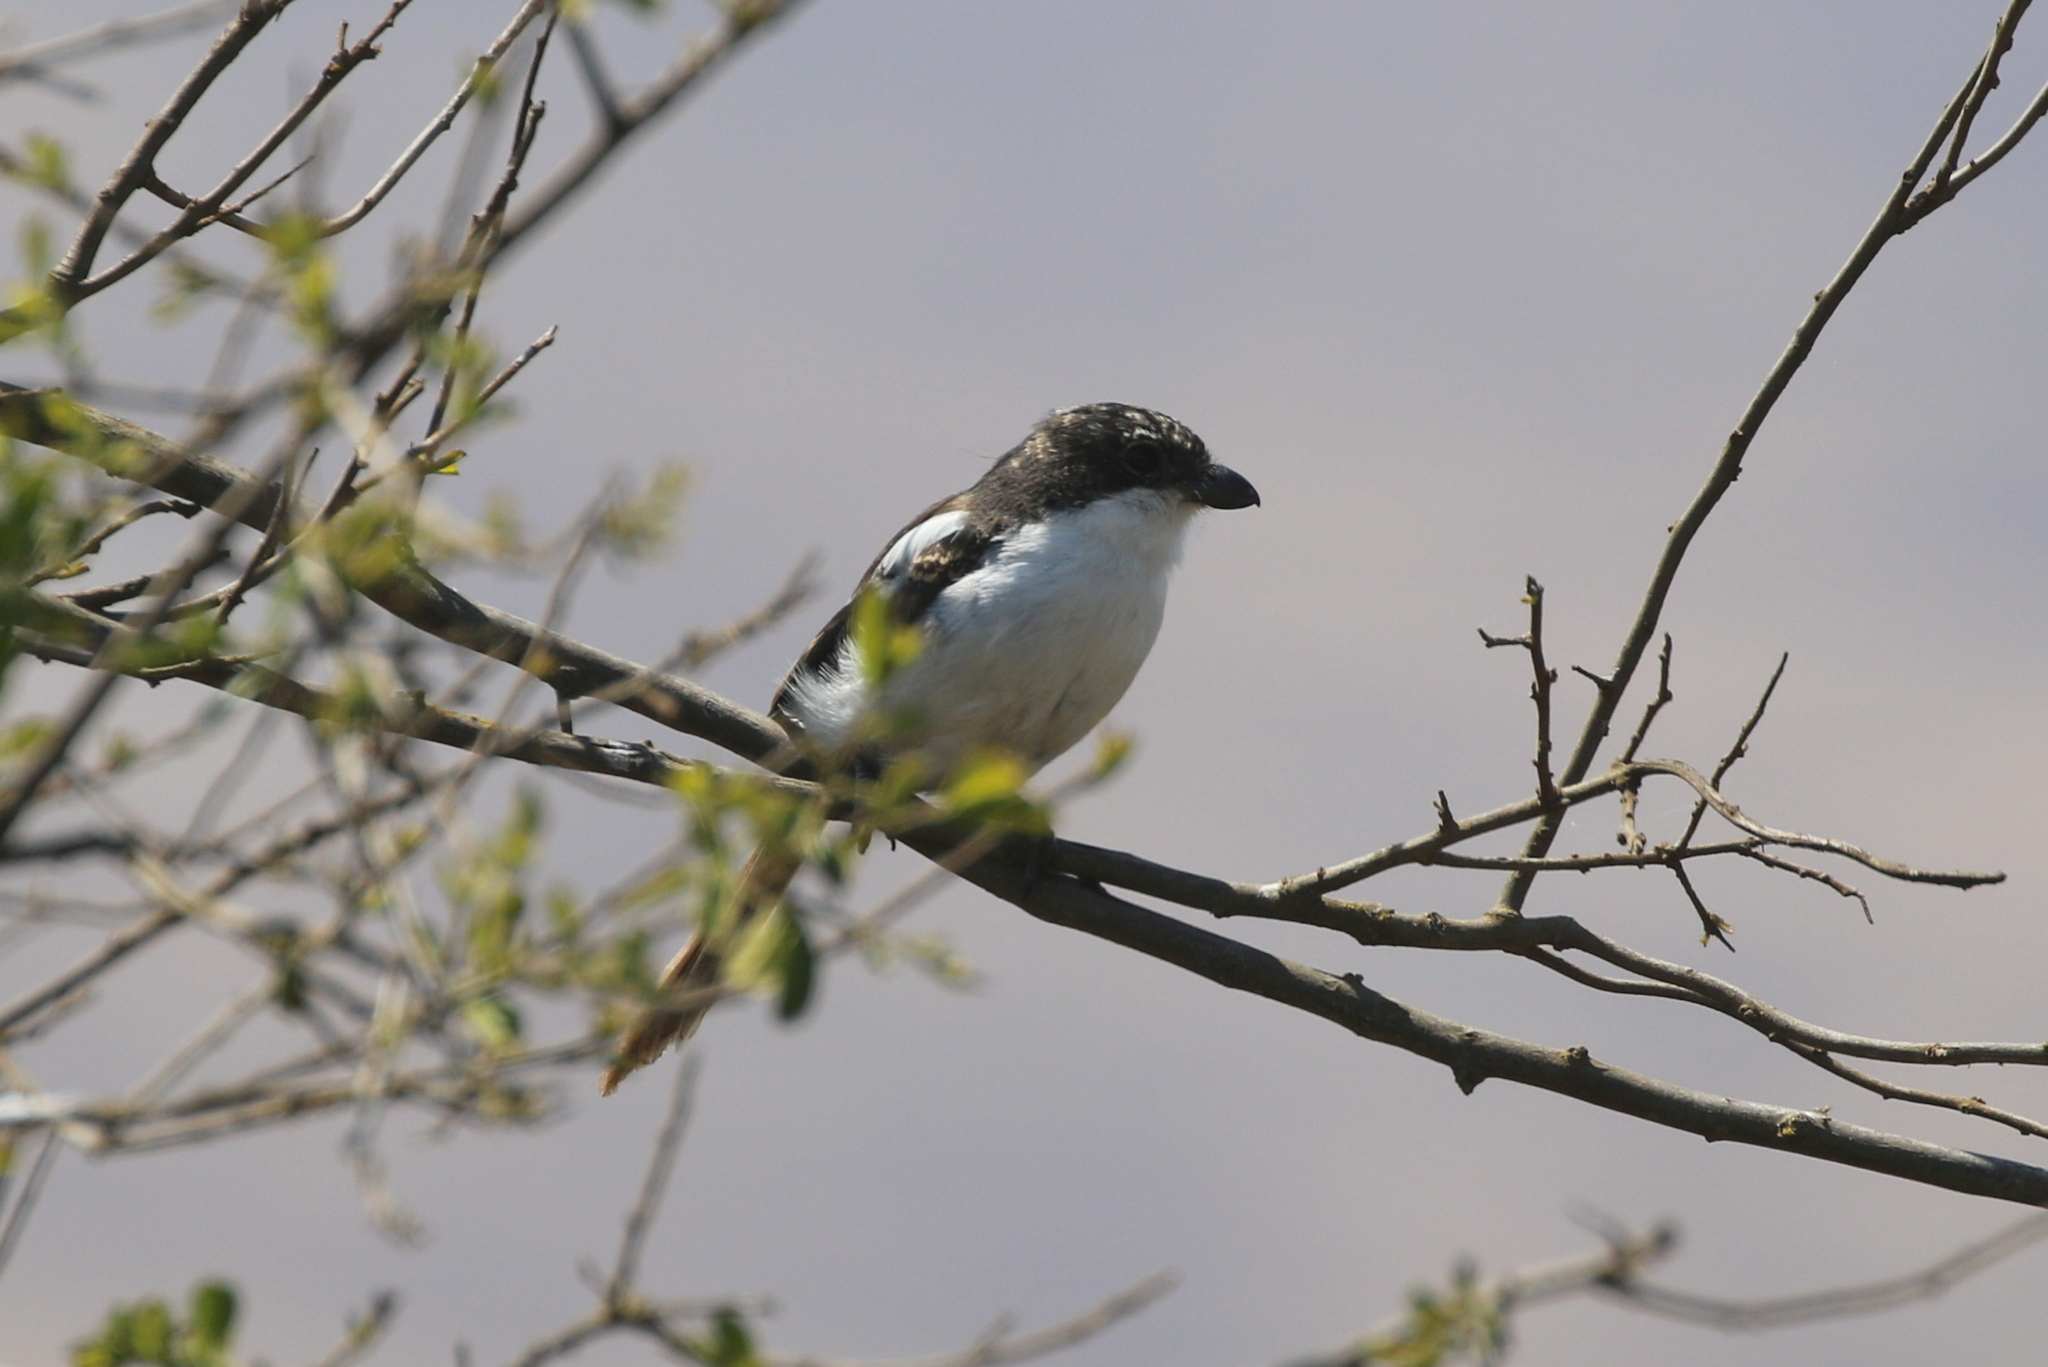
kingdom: Animalia
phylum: Chordata
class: Aves
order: Passeriformes
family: Laniidae
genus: Lanius
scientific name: Lanius humeralis
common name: Northern fiscal
